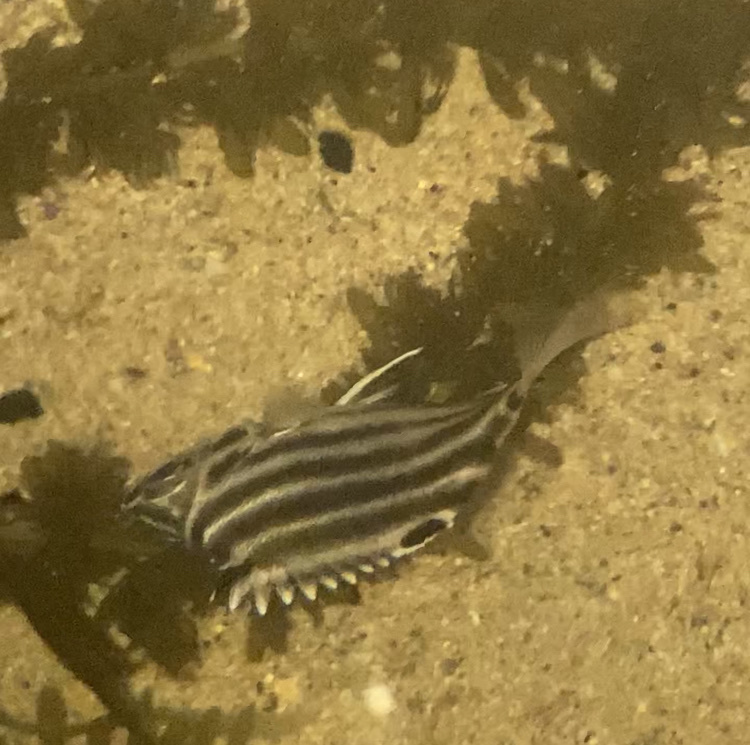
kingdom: Animalia
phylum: Chordata
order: Perciformes
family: Kyphosidae
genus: Microcanthus
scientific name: Microcanthus joyceae
